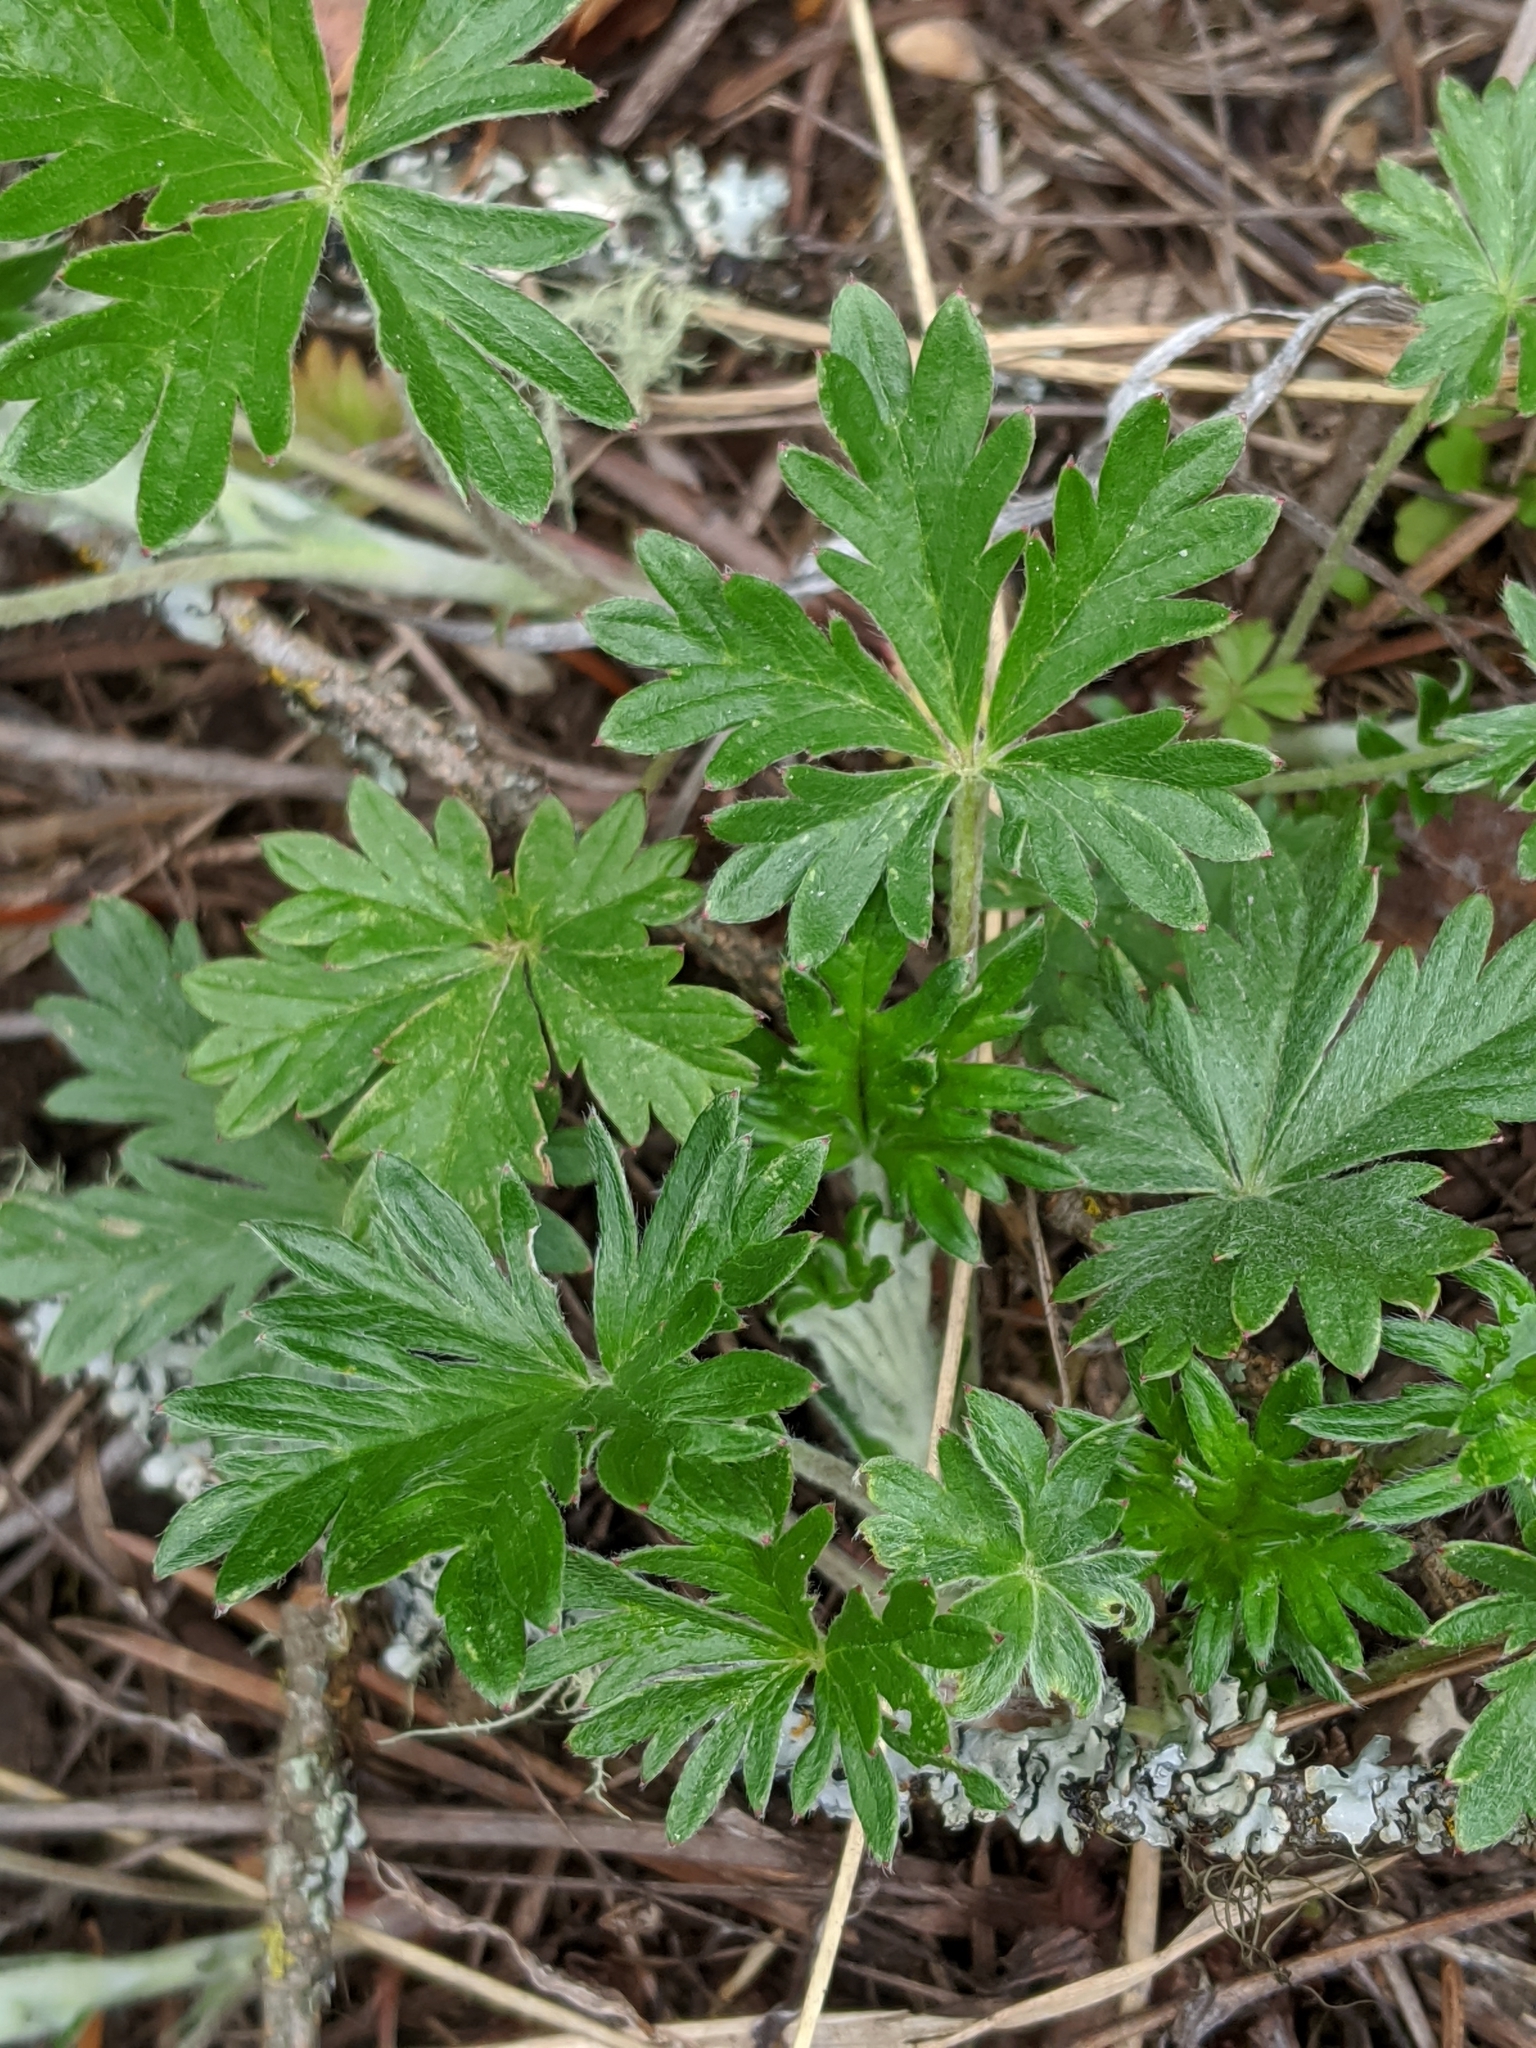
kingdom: Plantae
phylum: Tracheophyta
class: Magnoliopsida
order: Rosales
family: Rosaceae
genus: Potentilla
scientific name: Potentilla argentea
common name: Hoary cinquefoil
